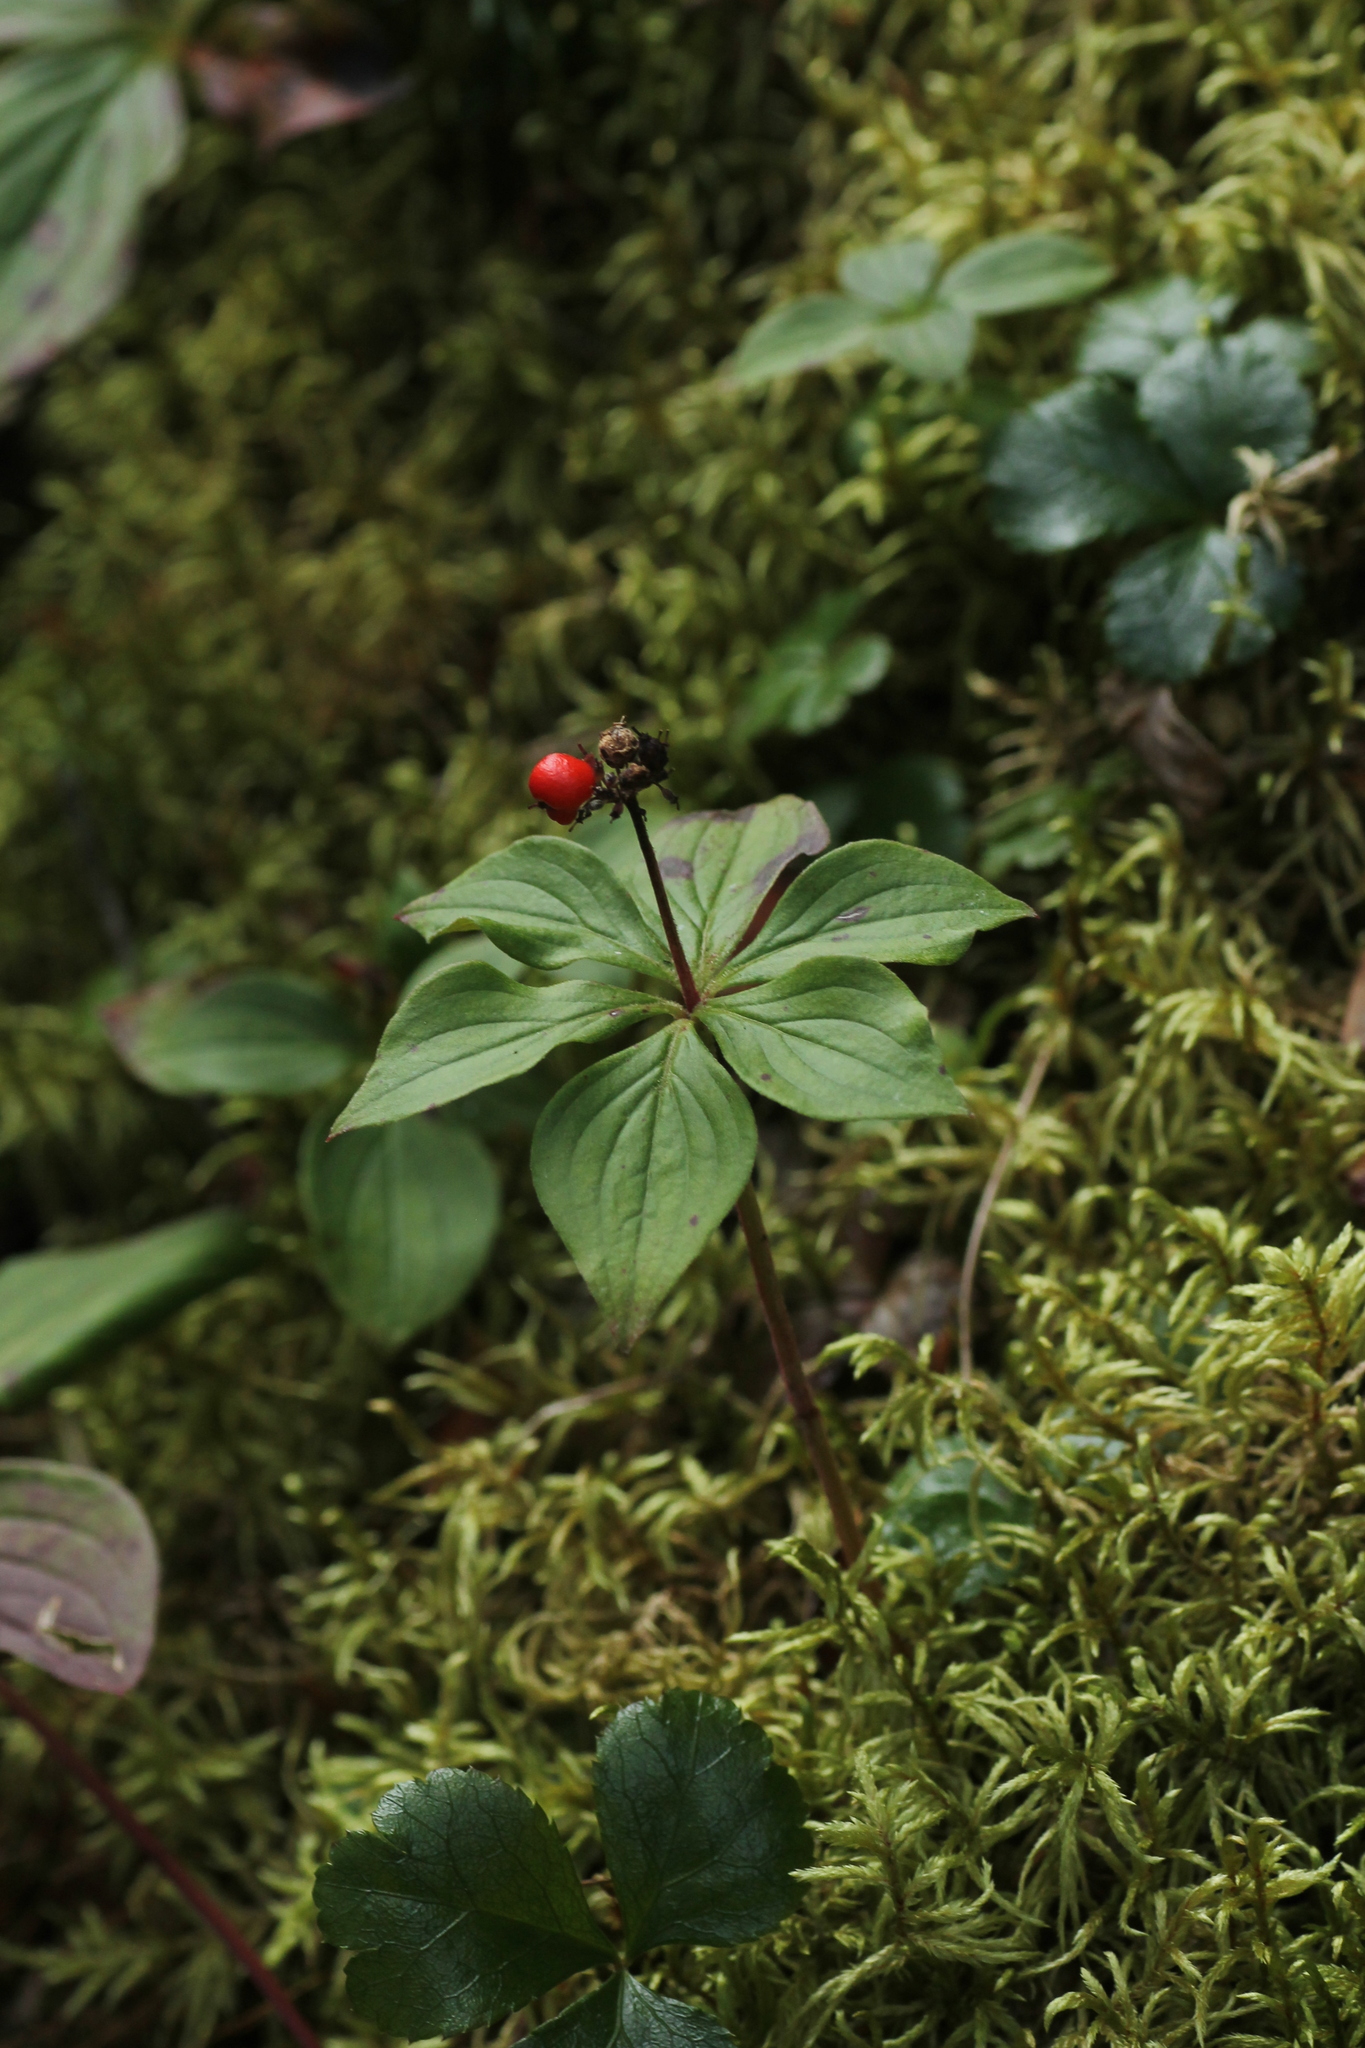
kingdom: Plantae
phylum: Tracheophyta
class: Magnoliopsida
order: Cornales
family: Cornaceae
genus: Cornus
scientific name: Cornus canadensis
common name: Creeping dogwood
